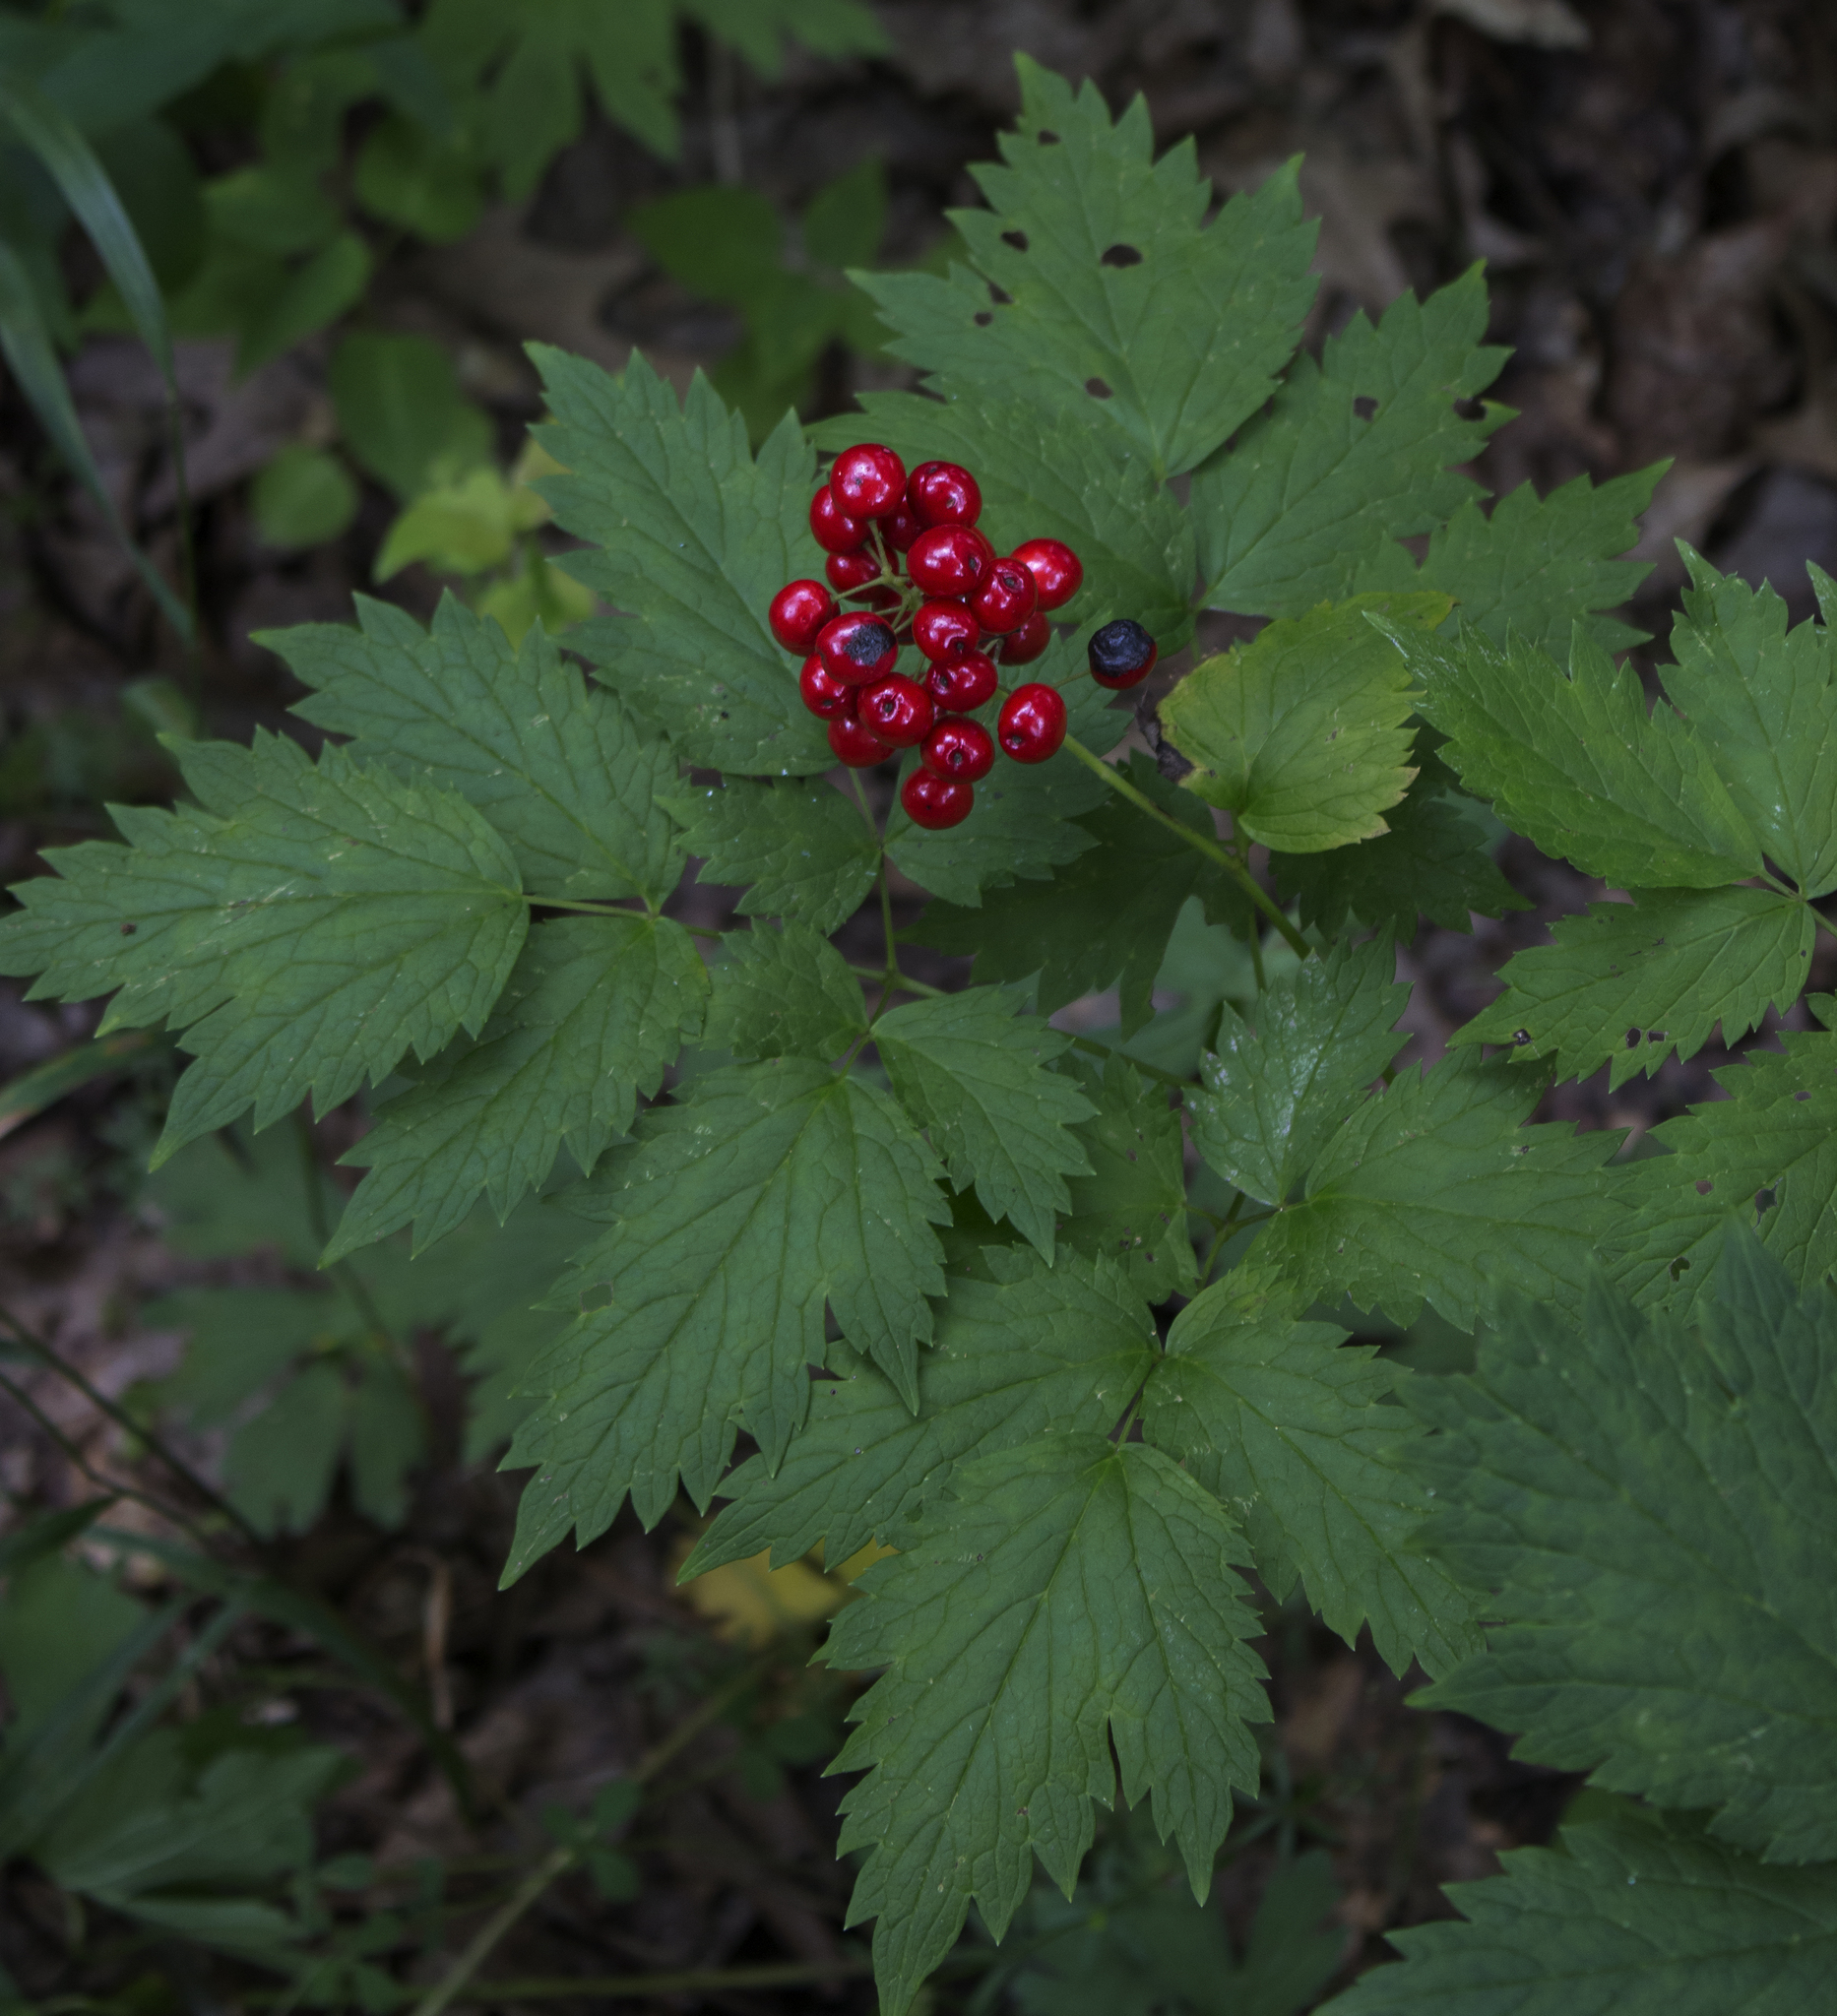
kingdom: Plantae
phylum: Tracheophyta
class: Magnoliopsida
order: Ranunculales
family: Ranunculaceae
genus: Actaea
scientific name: Actaea rubra
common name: Red baneberry
